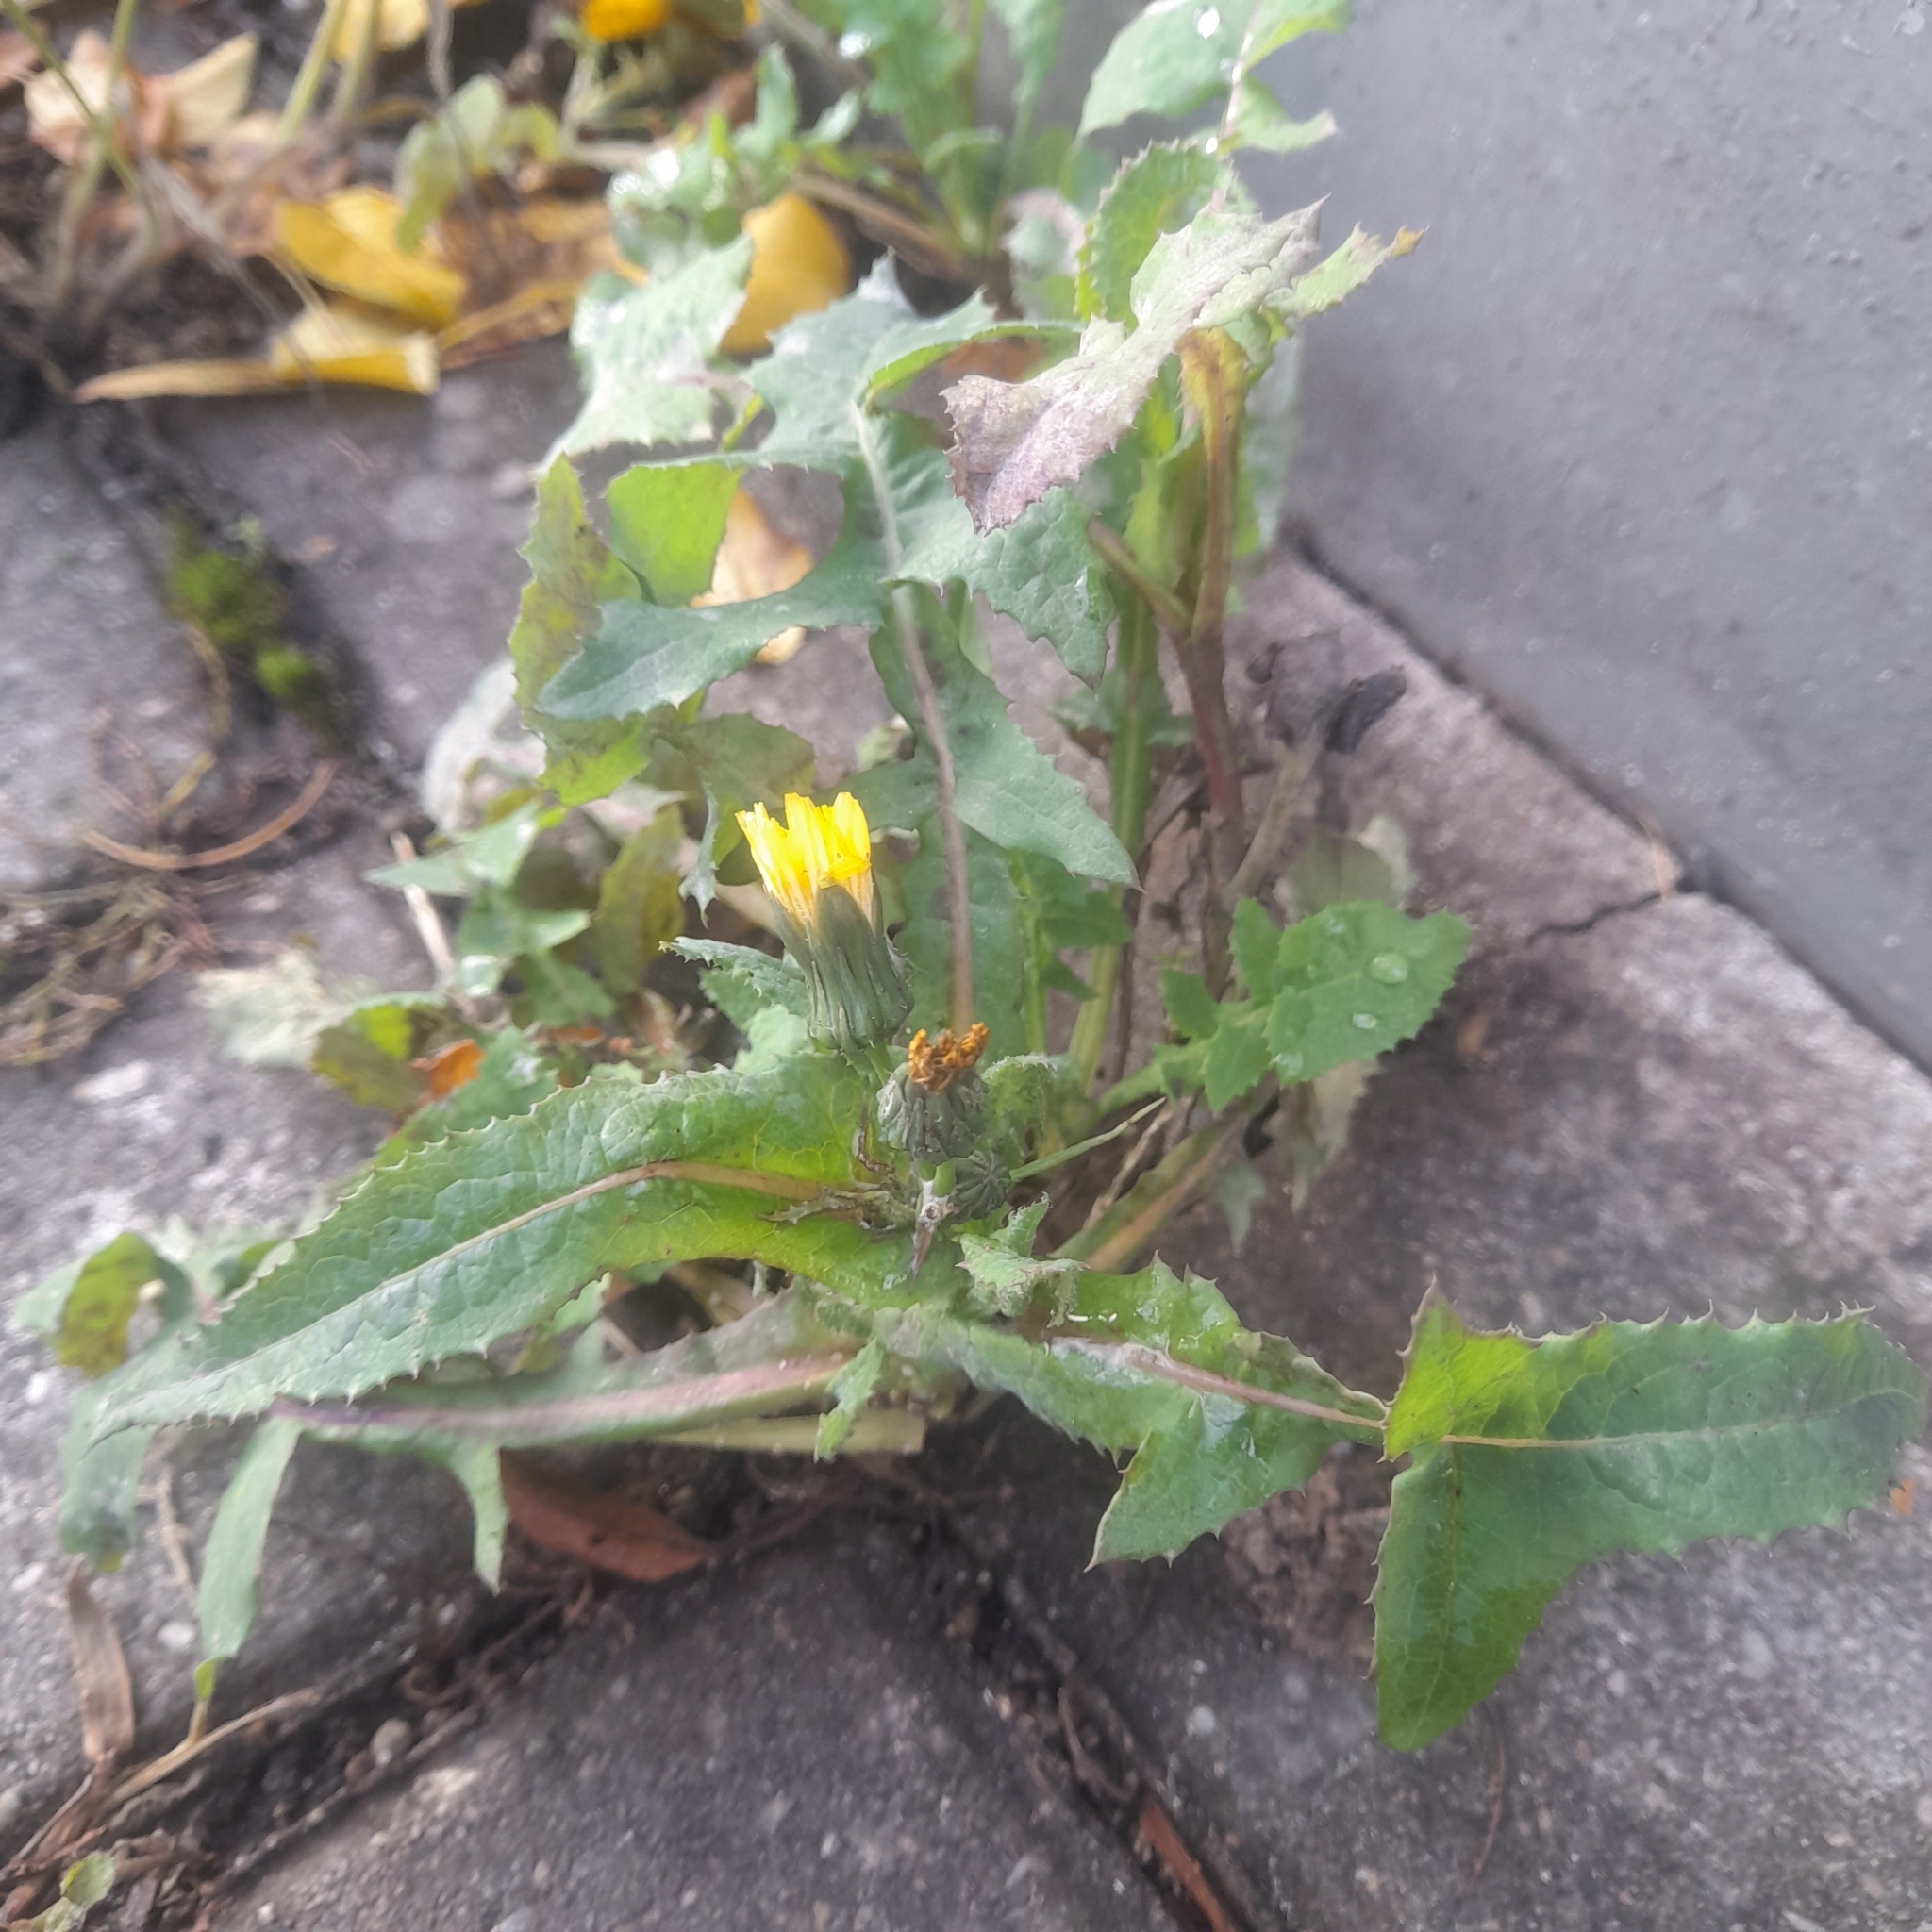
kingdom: Plantae
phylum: Tracheophyta
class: Magnoliopsida
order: Asterales
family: Asteraceae
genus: Sonchus
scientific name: Sonchus oleraceus
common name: Common sowthistle
